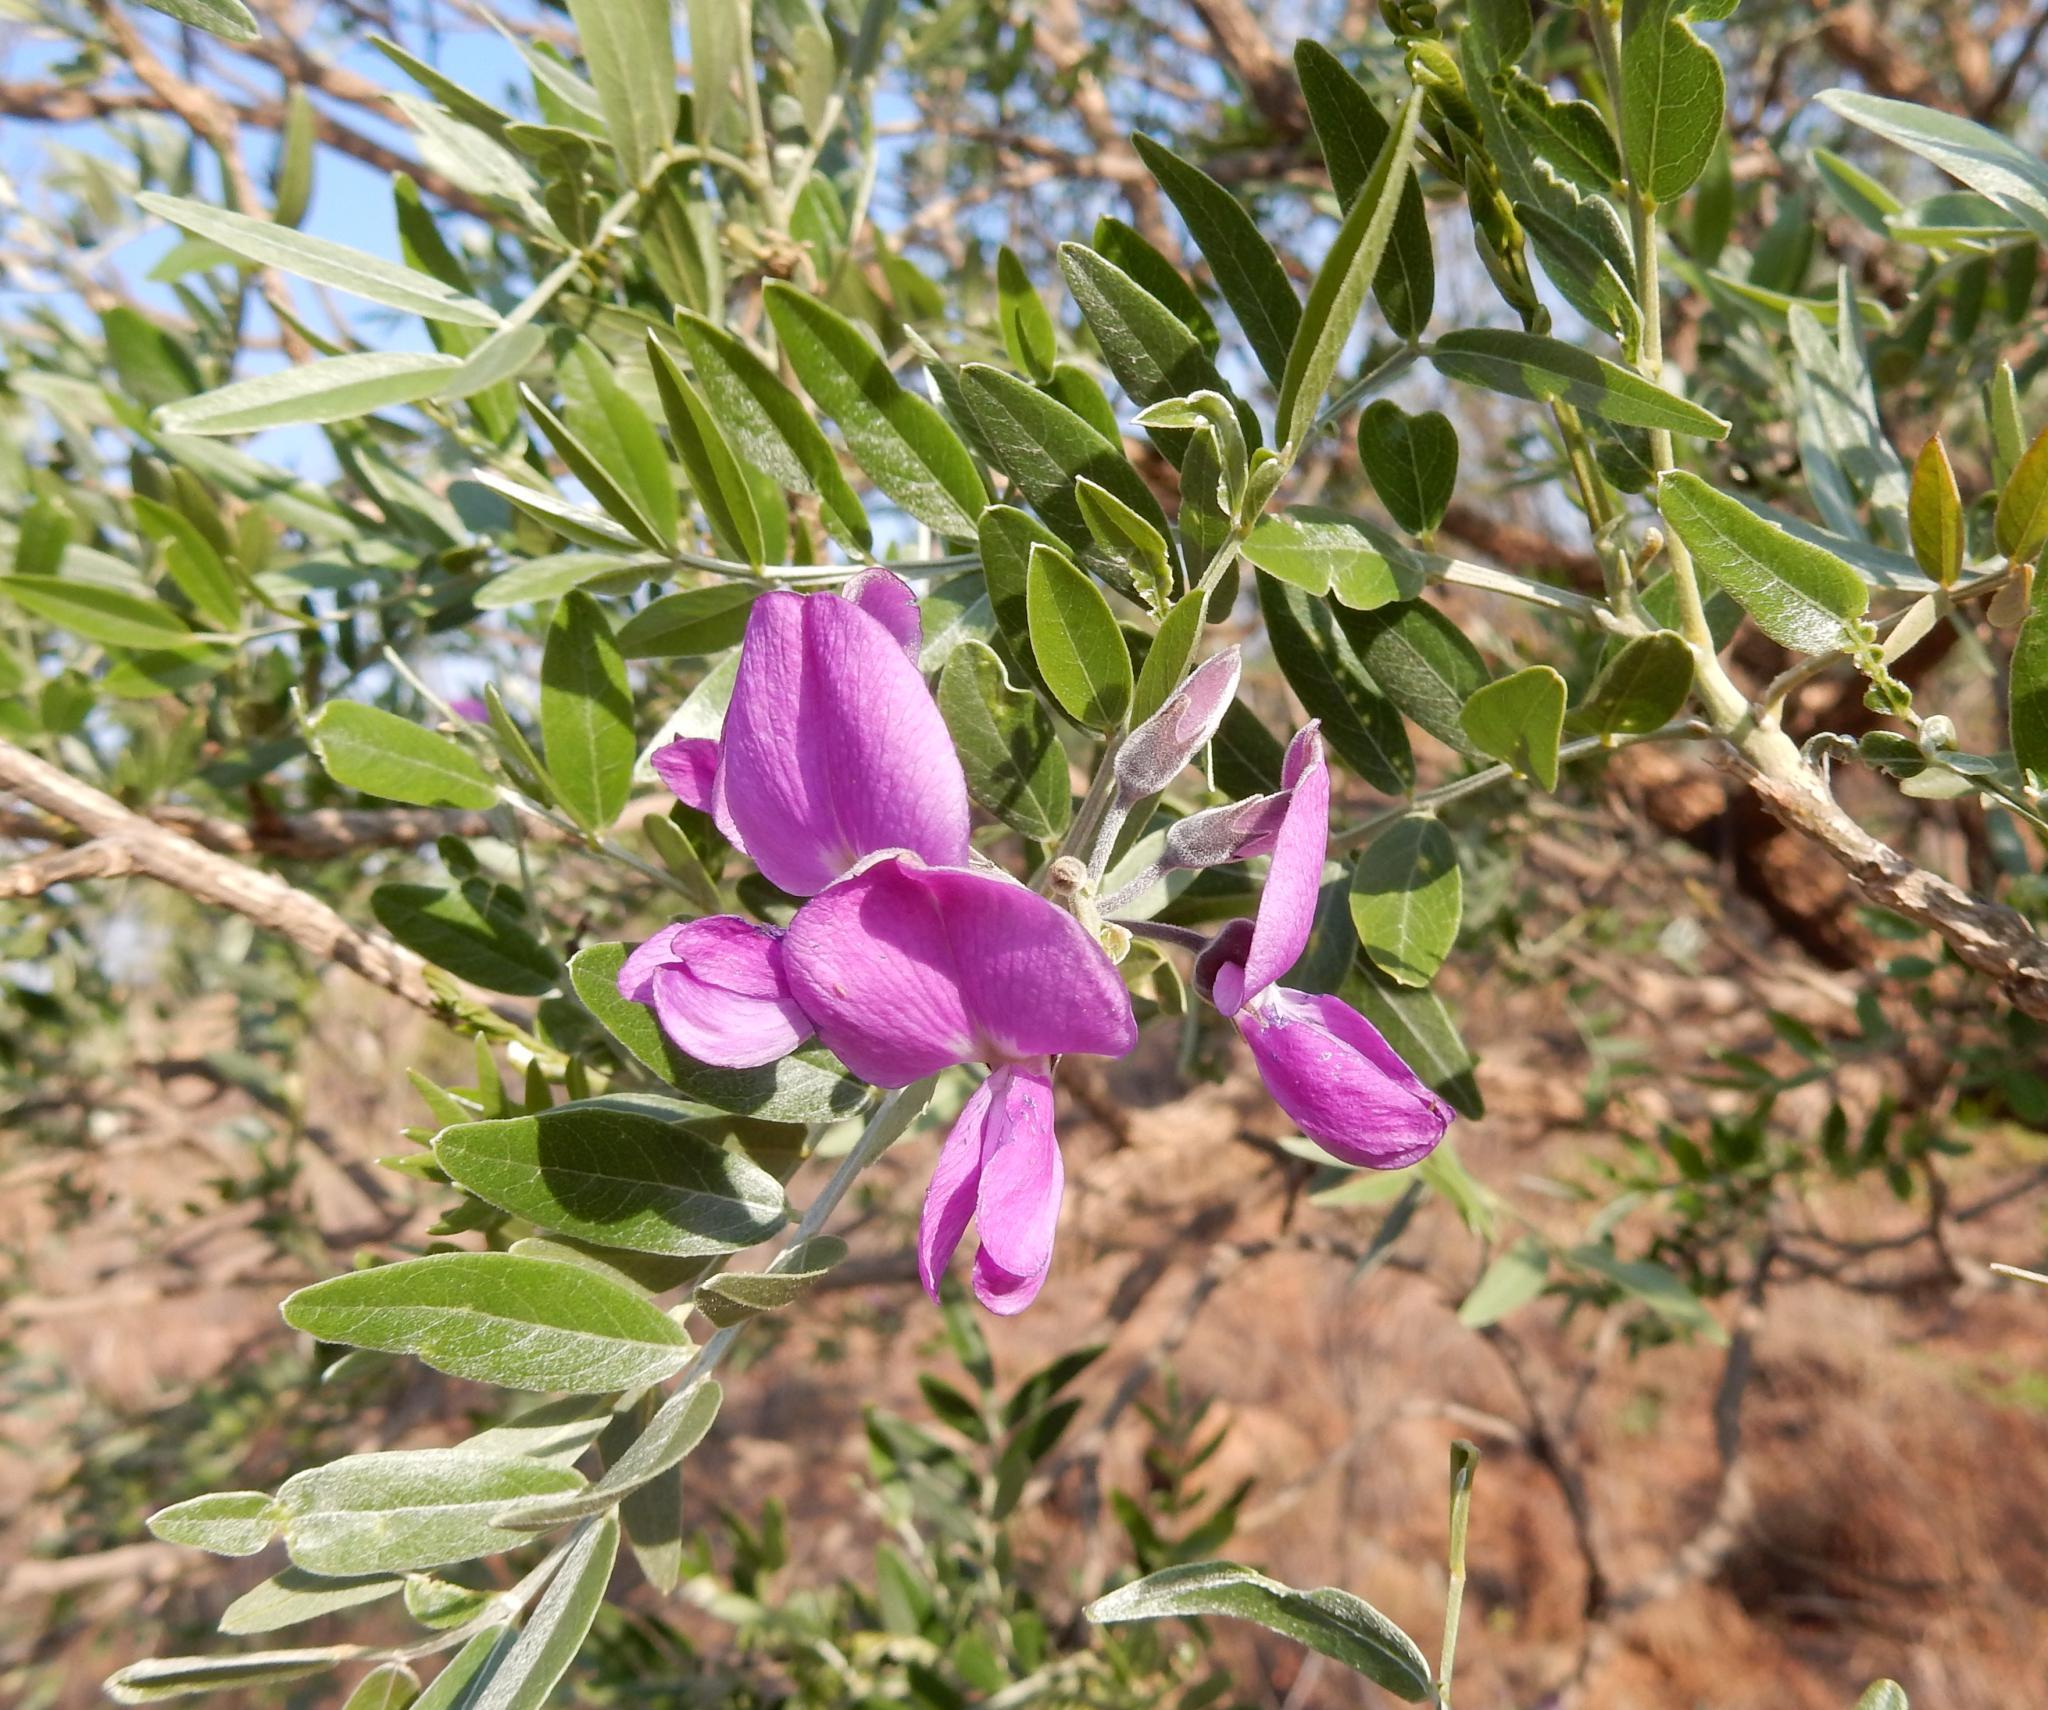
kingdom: Plantae
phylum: Tracheophyta
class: Magnoliopsida
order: Fabales
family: Fabaceae
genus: Mundulea
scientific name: Mundulea sericea
